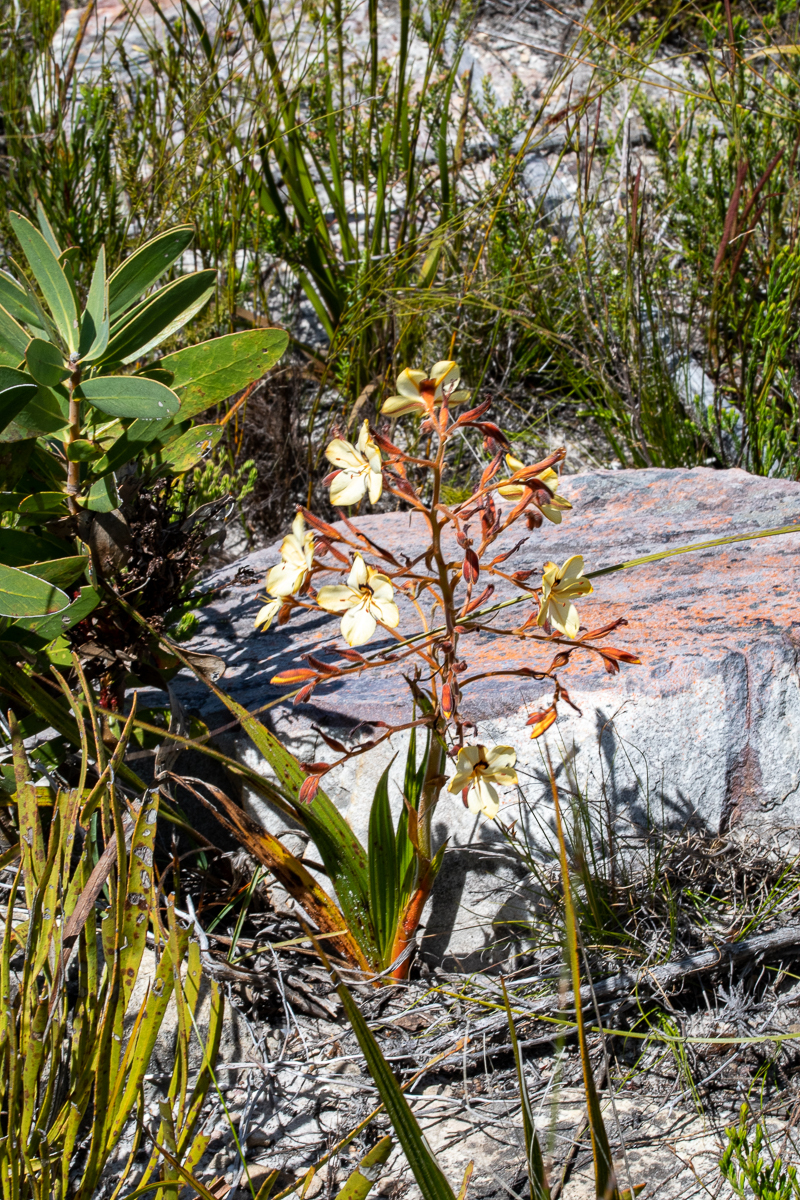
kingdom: Plantae
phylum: Tracheophyta
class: Liliopsida
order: Commelinales
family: Haemodoraceae
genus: Wachendorfia
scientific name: Wachendorfia paniculata
